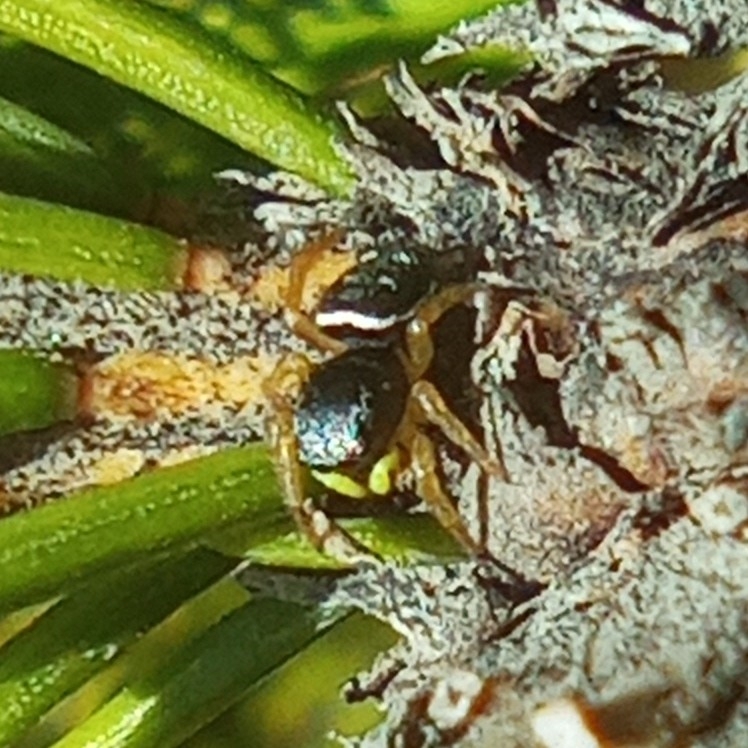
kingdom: Animalia
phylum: Arthropoda
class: Arachnida
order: Araneae
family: Salticidae
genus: Heliophanus
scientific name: Heliophanus
